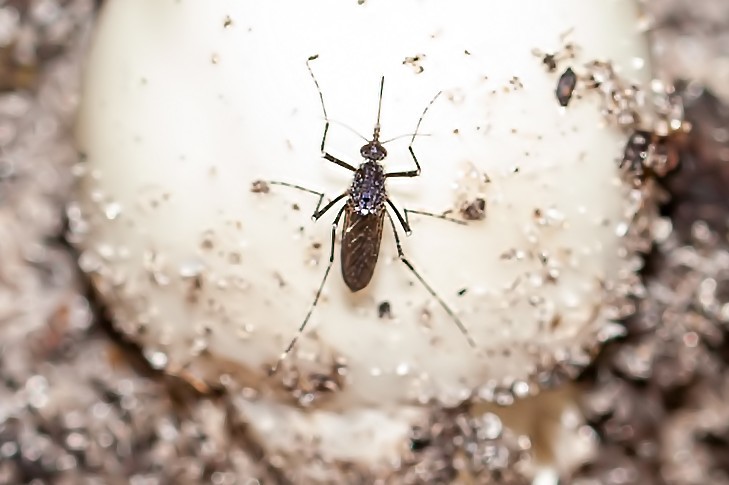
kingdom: Animalia
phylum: Arthropoda
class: Insecta
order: Diptera
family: Culicidae
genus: Psorophora
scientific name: Psorophora columbiae
